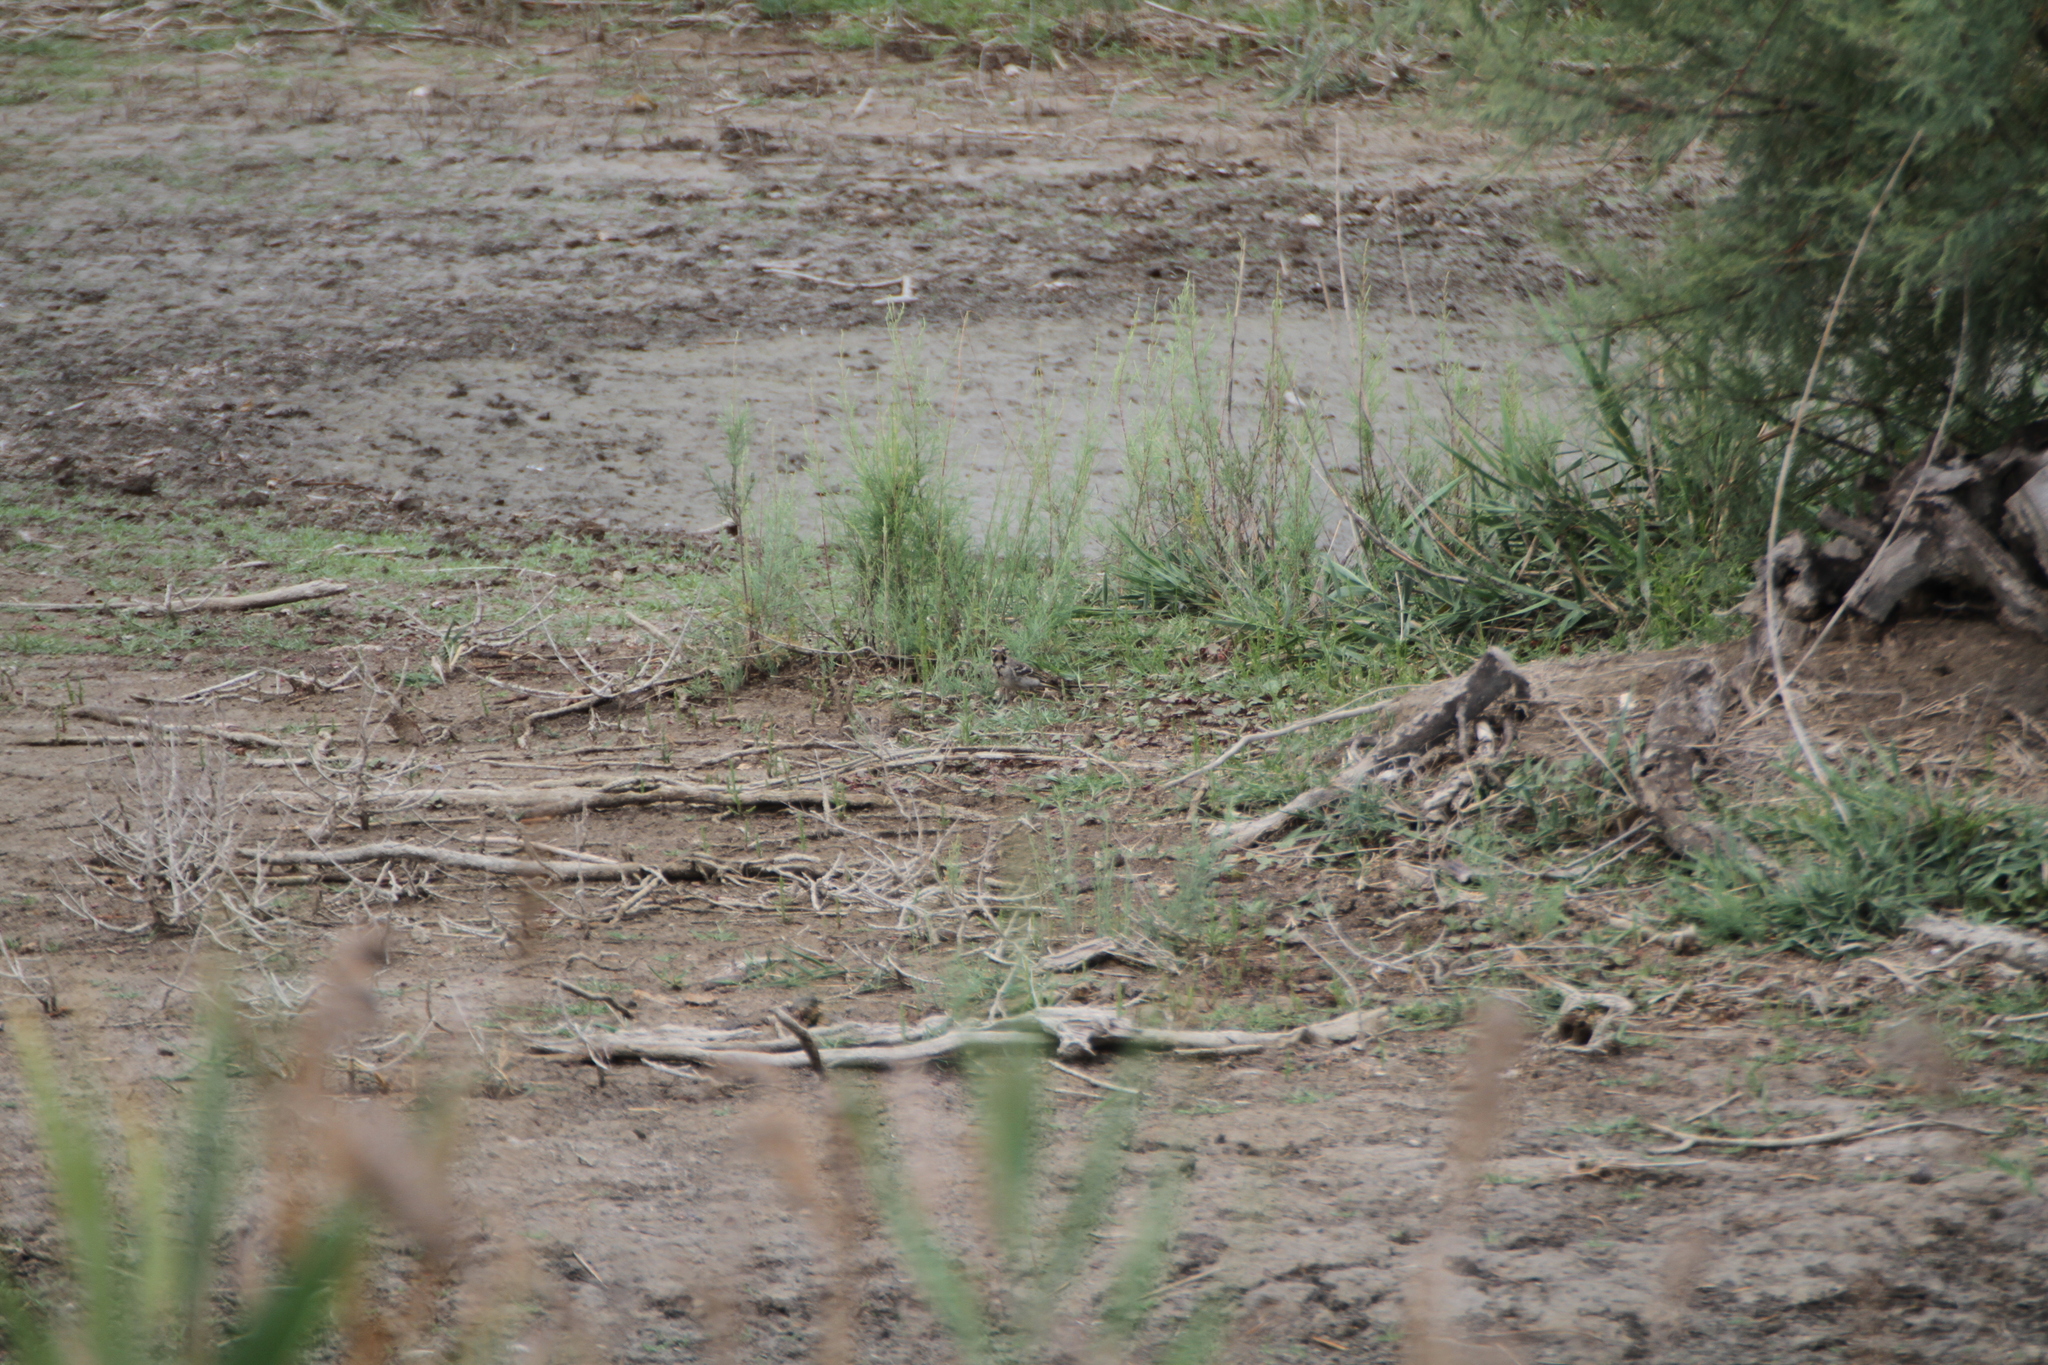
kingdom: Animalia
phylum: Chordata
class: Aves
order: Passeriformes
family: Motacillidae
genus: Motacilla
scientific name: Motacilla alba
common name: White wagtail
